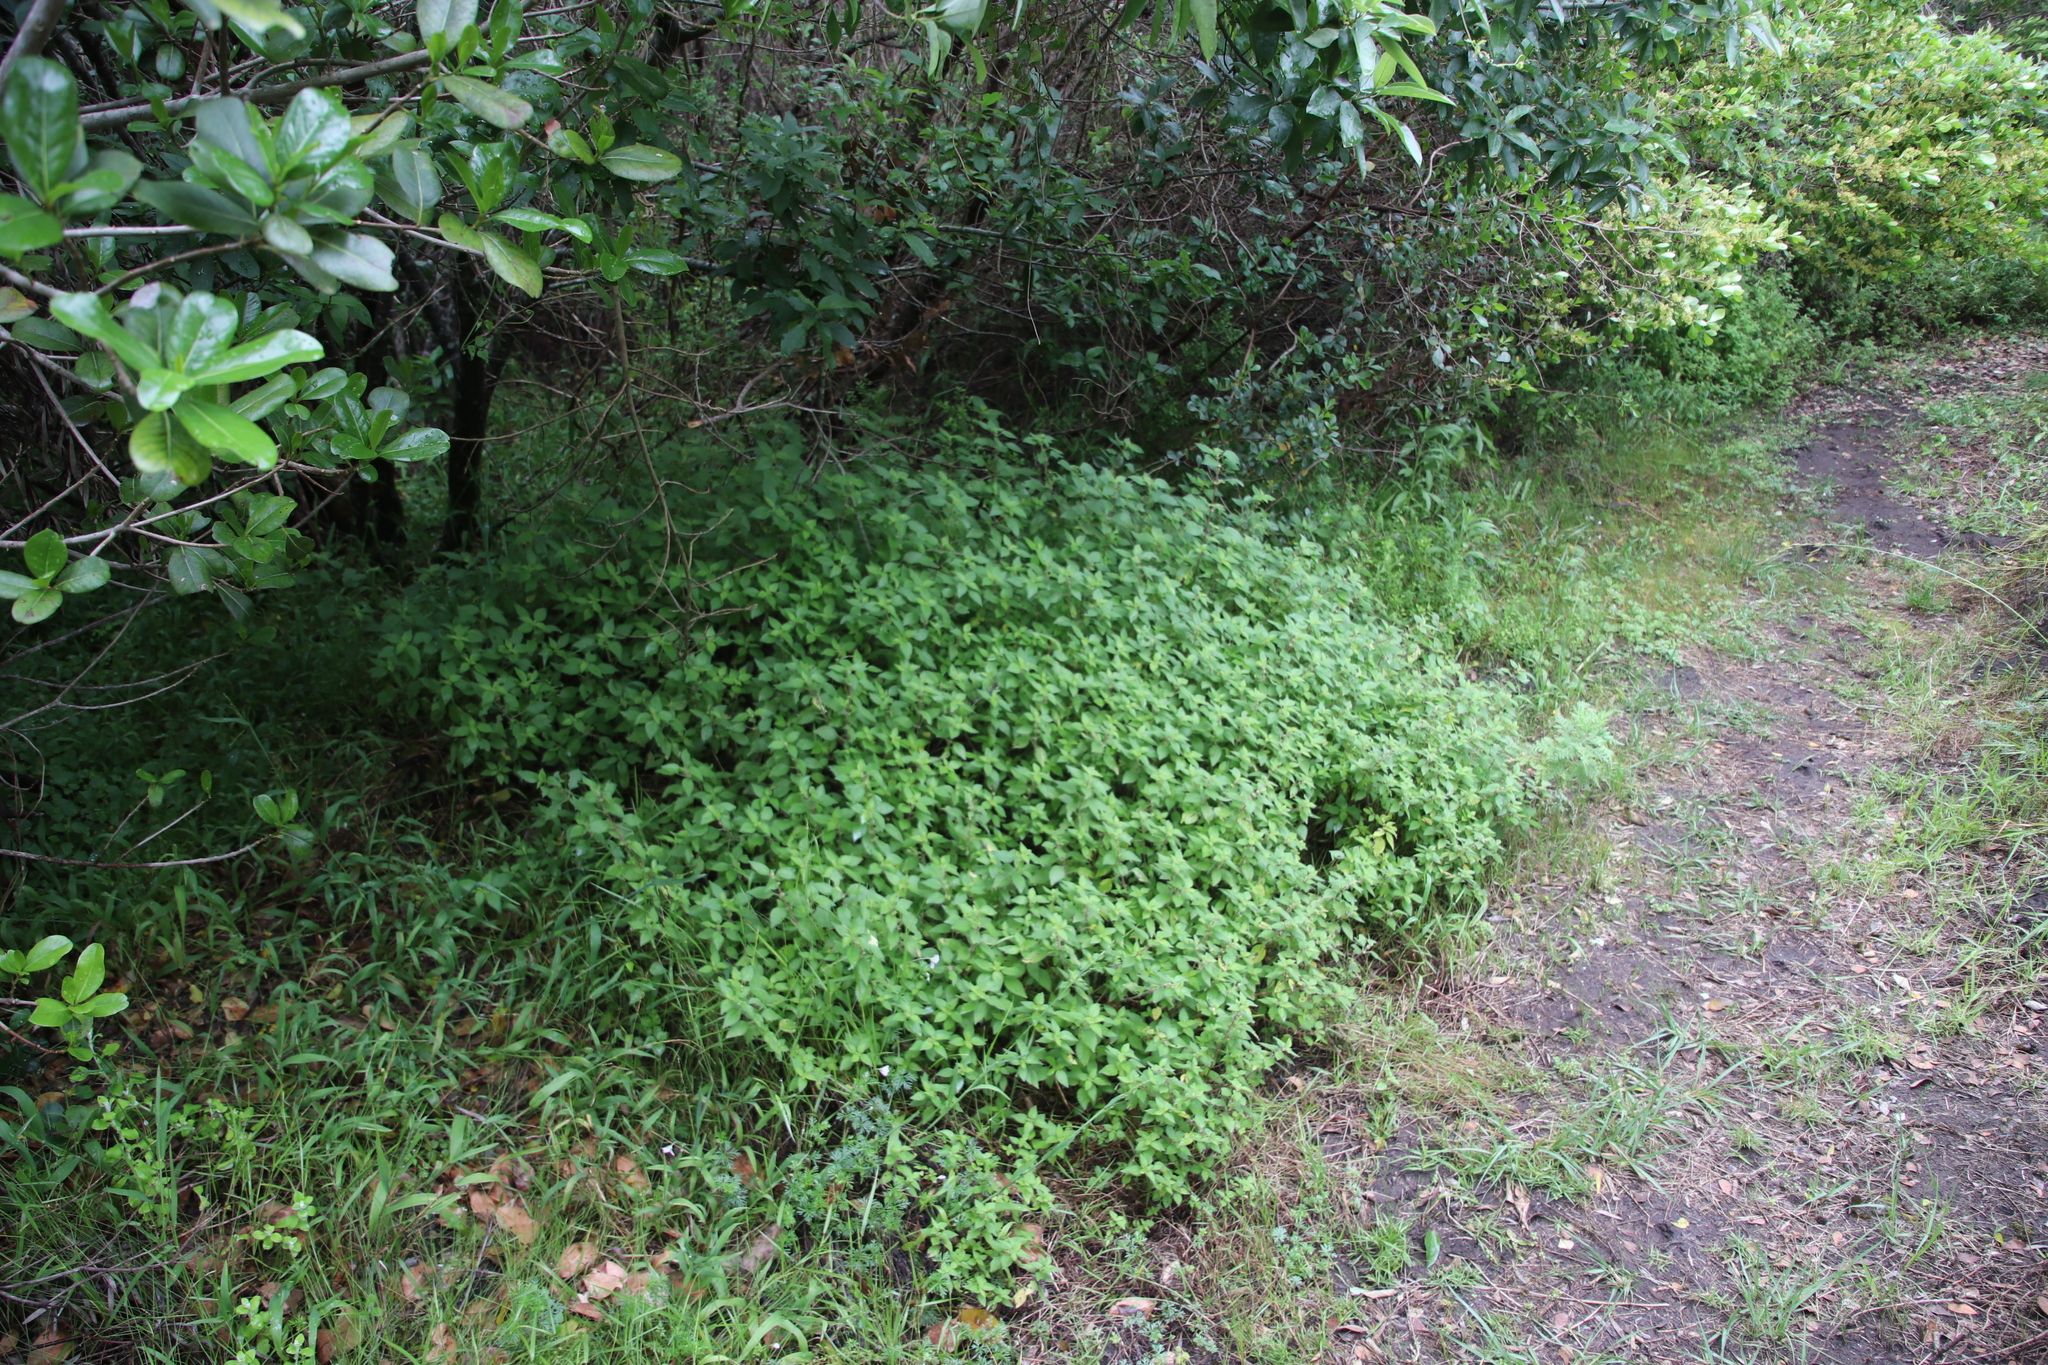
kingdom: Plantae
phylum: Tracheophyta
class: Magnoliopsida
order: Rosales
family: Urticaceae
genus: Droguetia
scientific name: Droguetia iners
